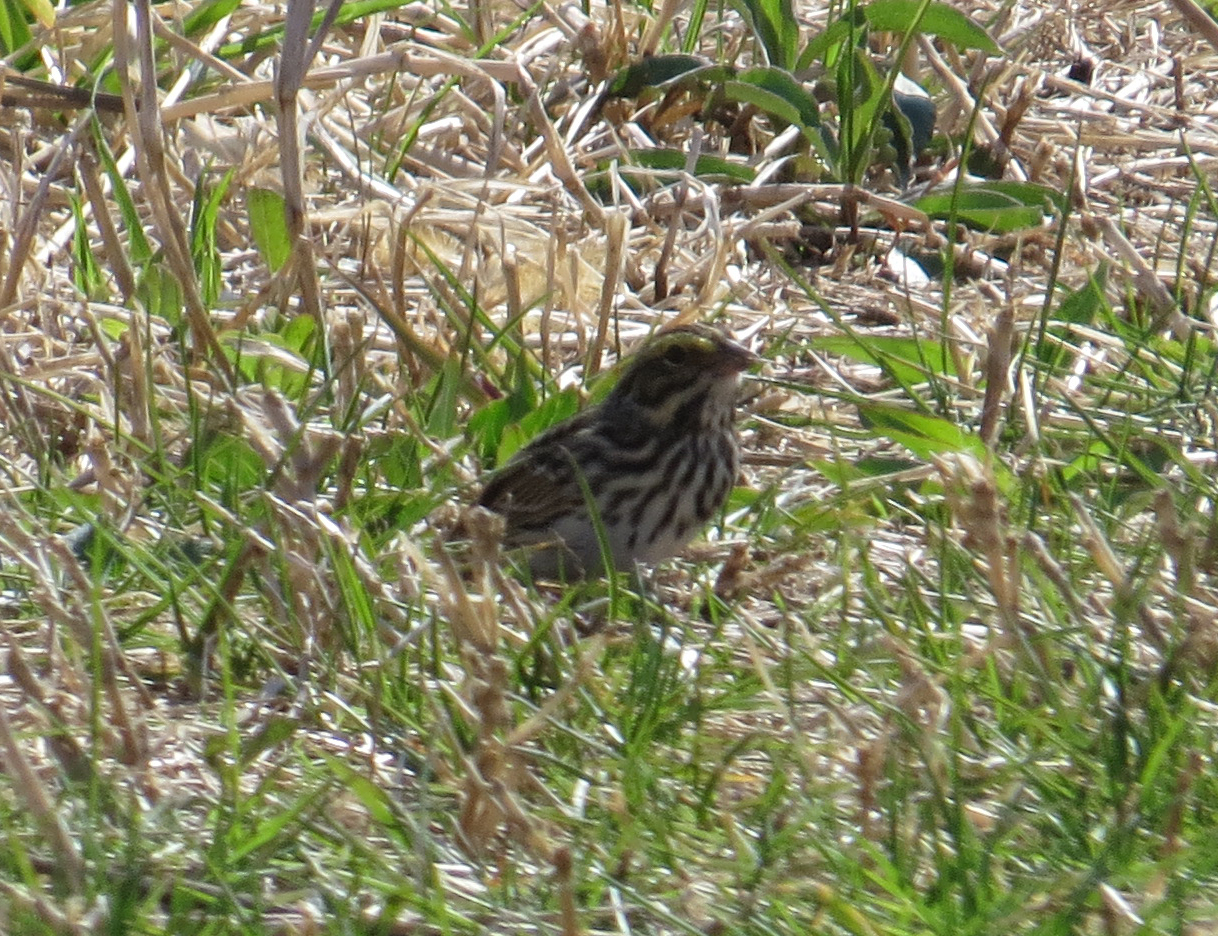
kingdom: Animalia
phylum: Chordata
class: Aves
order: Passeriformes
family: Passerellidae
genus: Passerculus
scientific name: Passerculus sandwichensis
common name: Savannah sparrow
